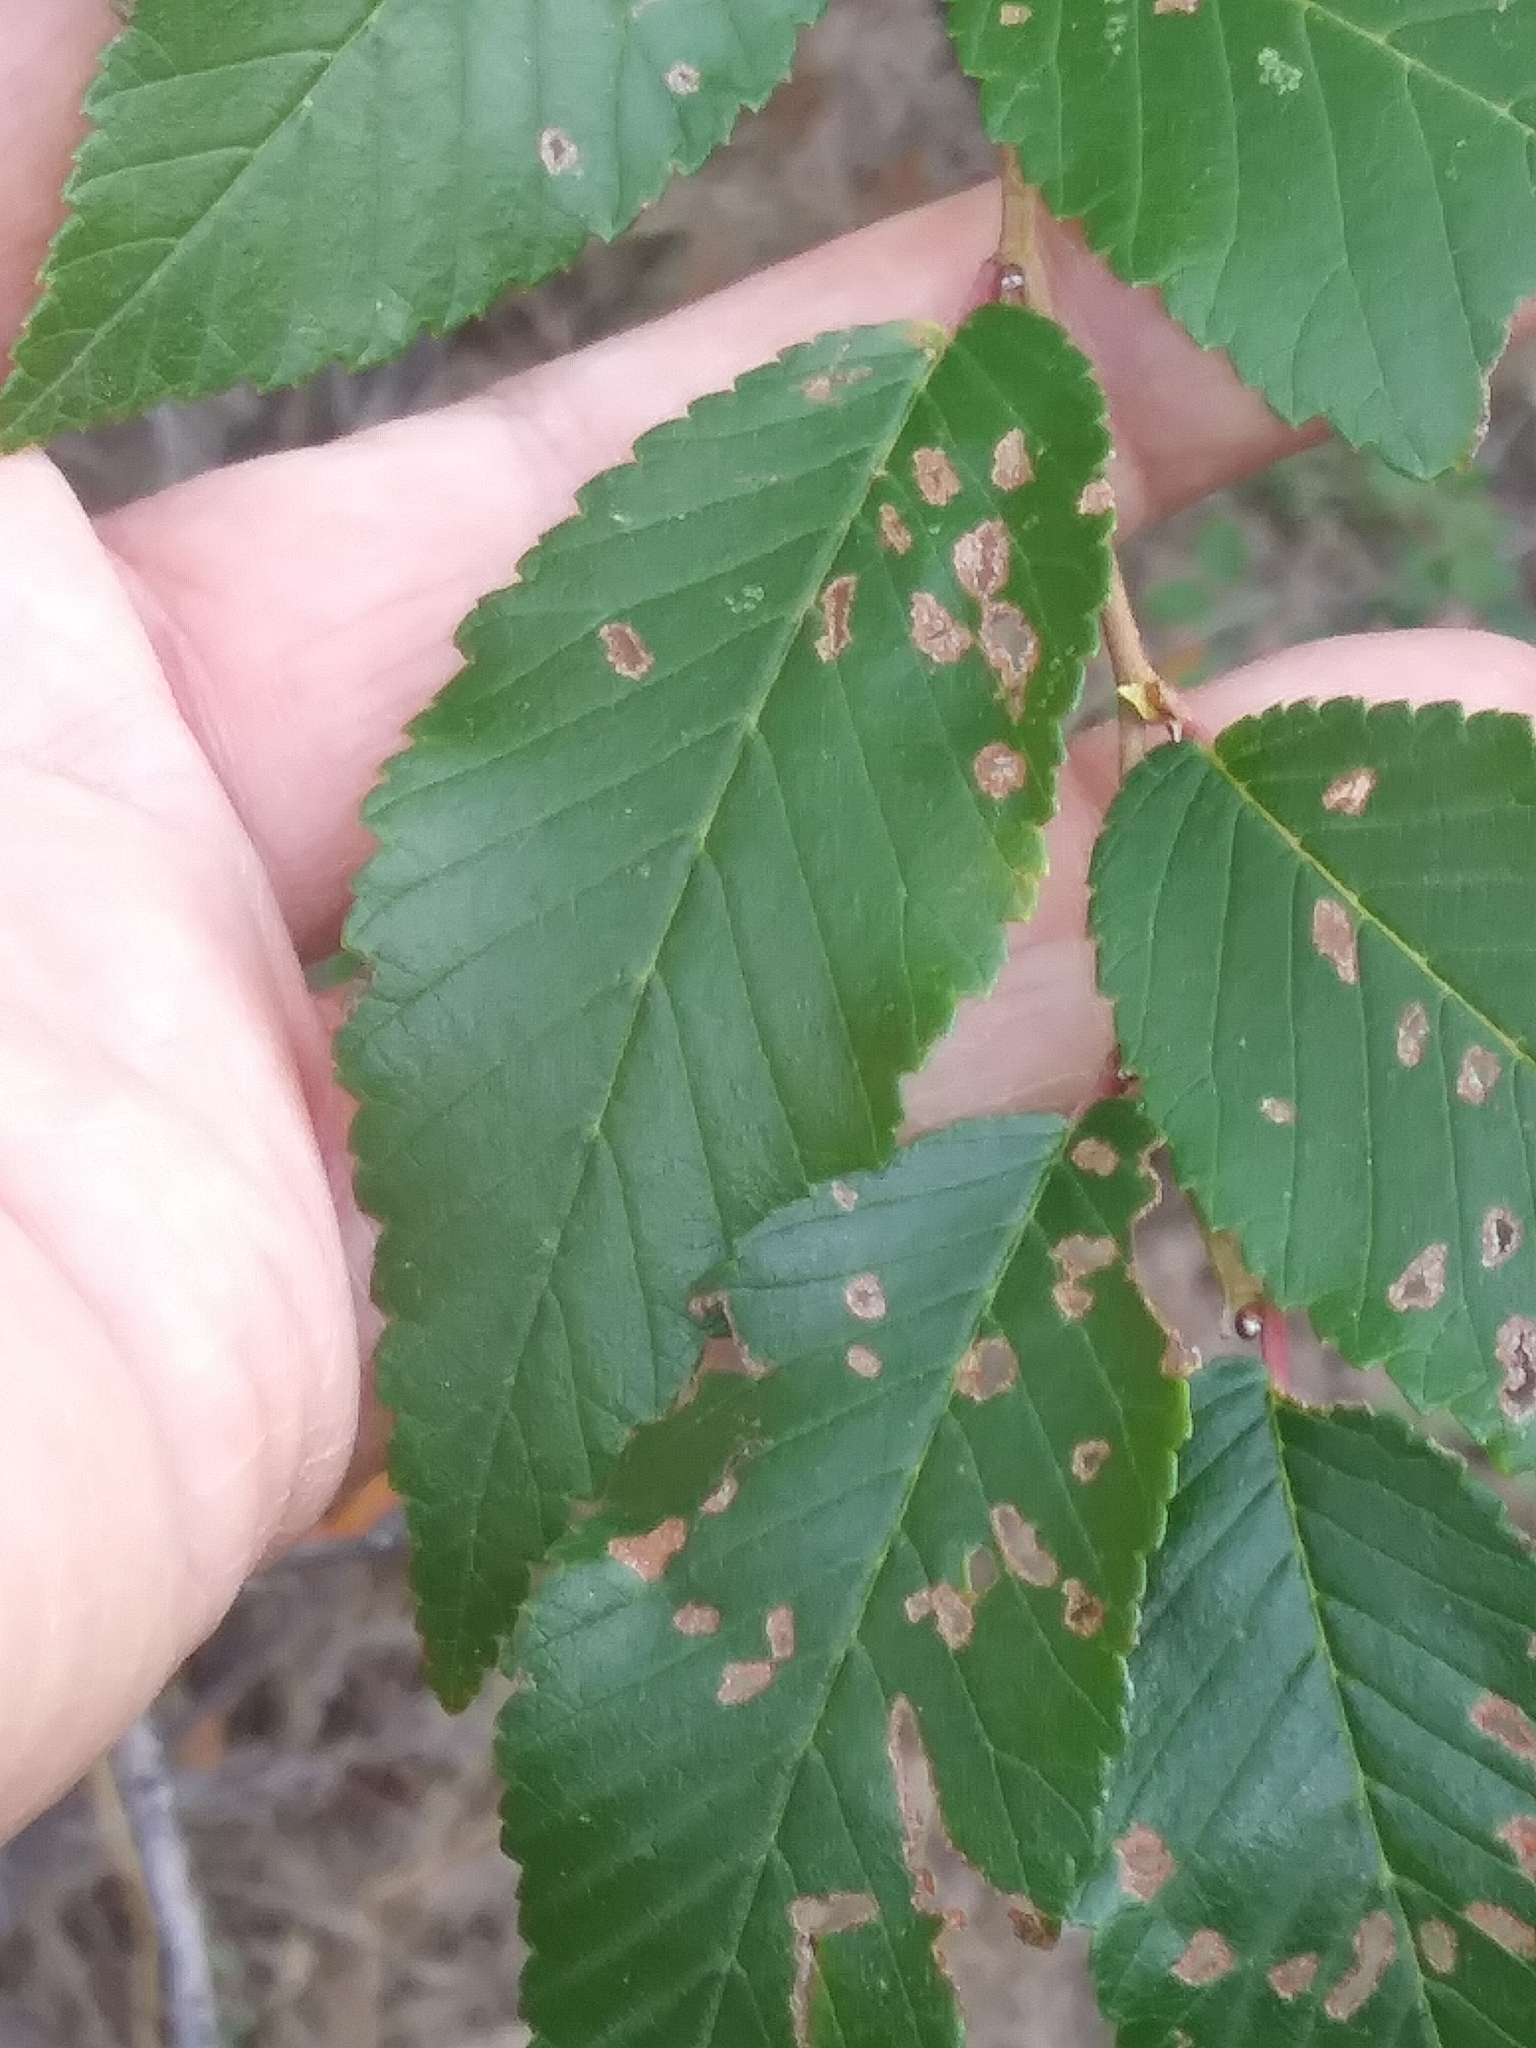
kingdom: Plantae
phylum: Tracheophyta
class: Magnoliopsida
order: Rosales
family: Ulmaceae
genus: Ulmus
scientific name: Ulmus pumila
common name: Siberian elm
